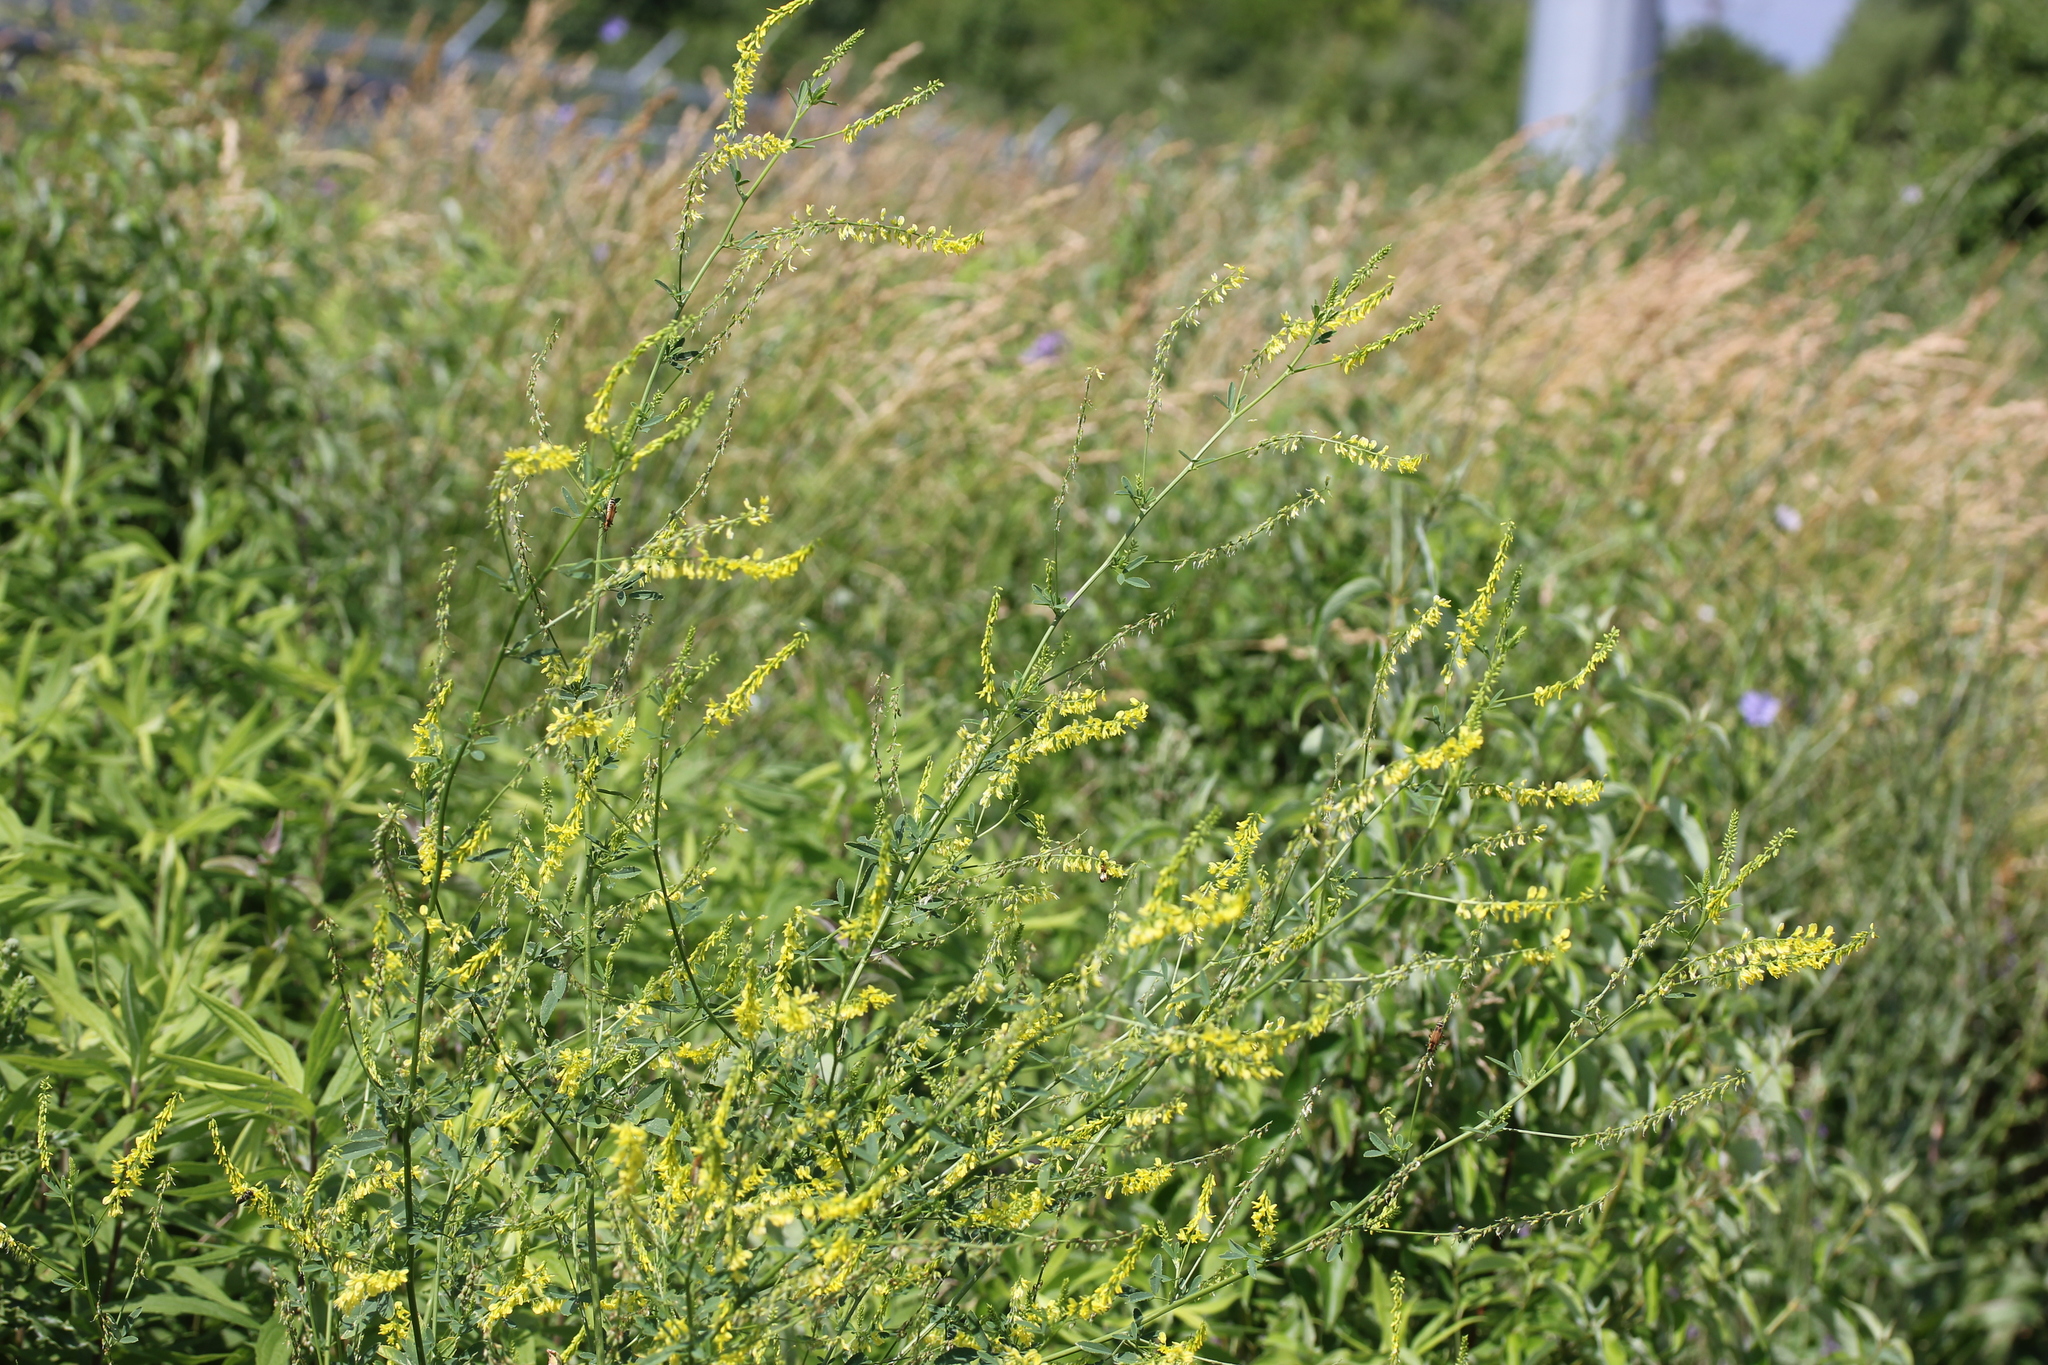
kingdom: Plantae
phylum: Tracheophyta
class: Magnoliopsida
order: Fabales
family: Fabaceae
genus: Melilotus
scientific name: Melilotus officinalis
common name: Sweetclover
